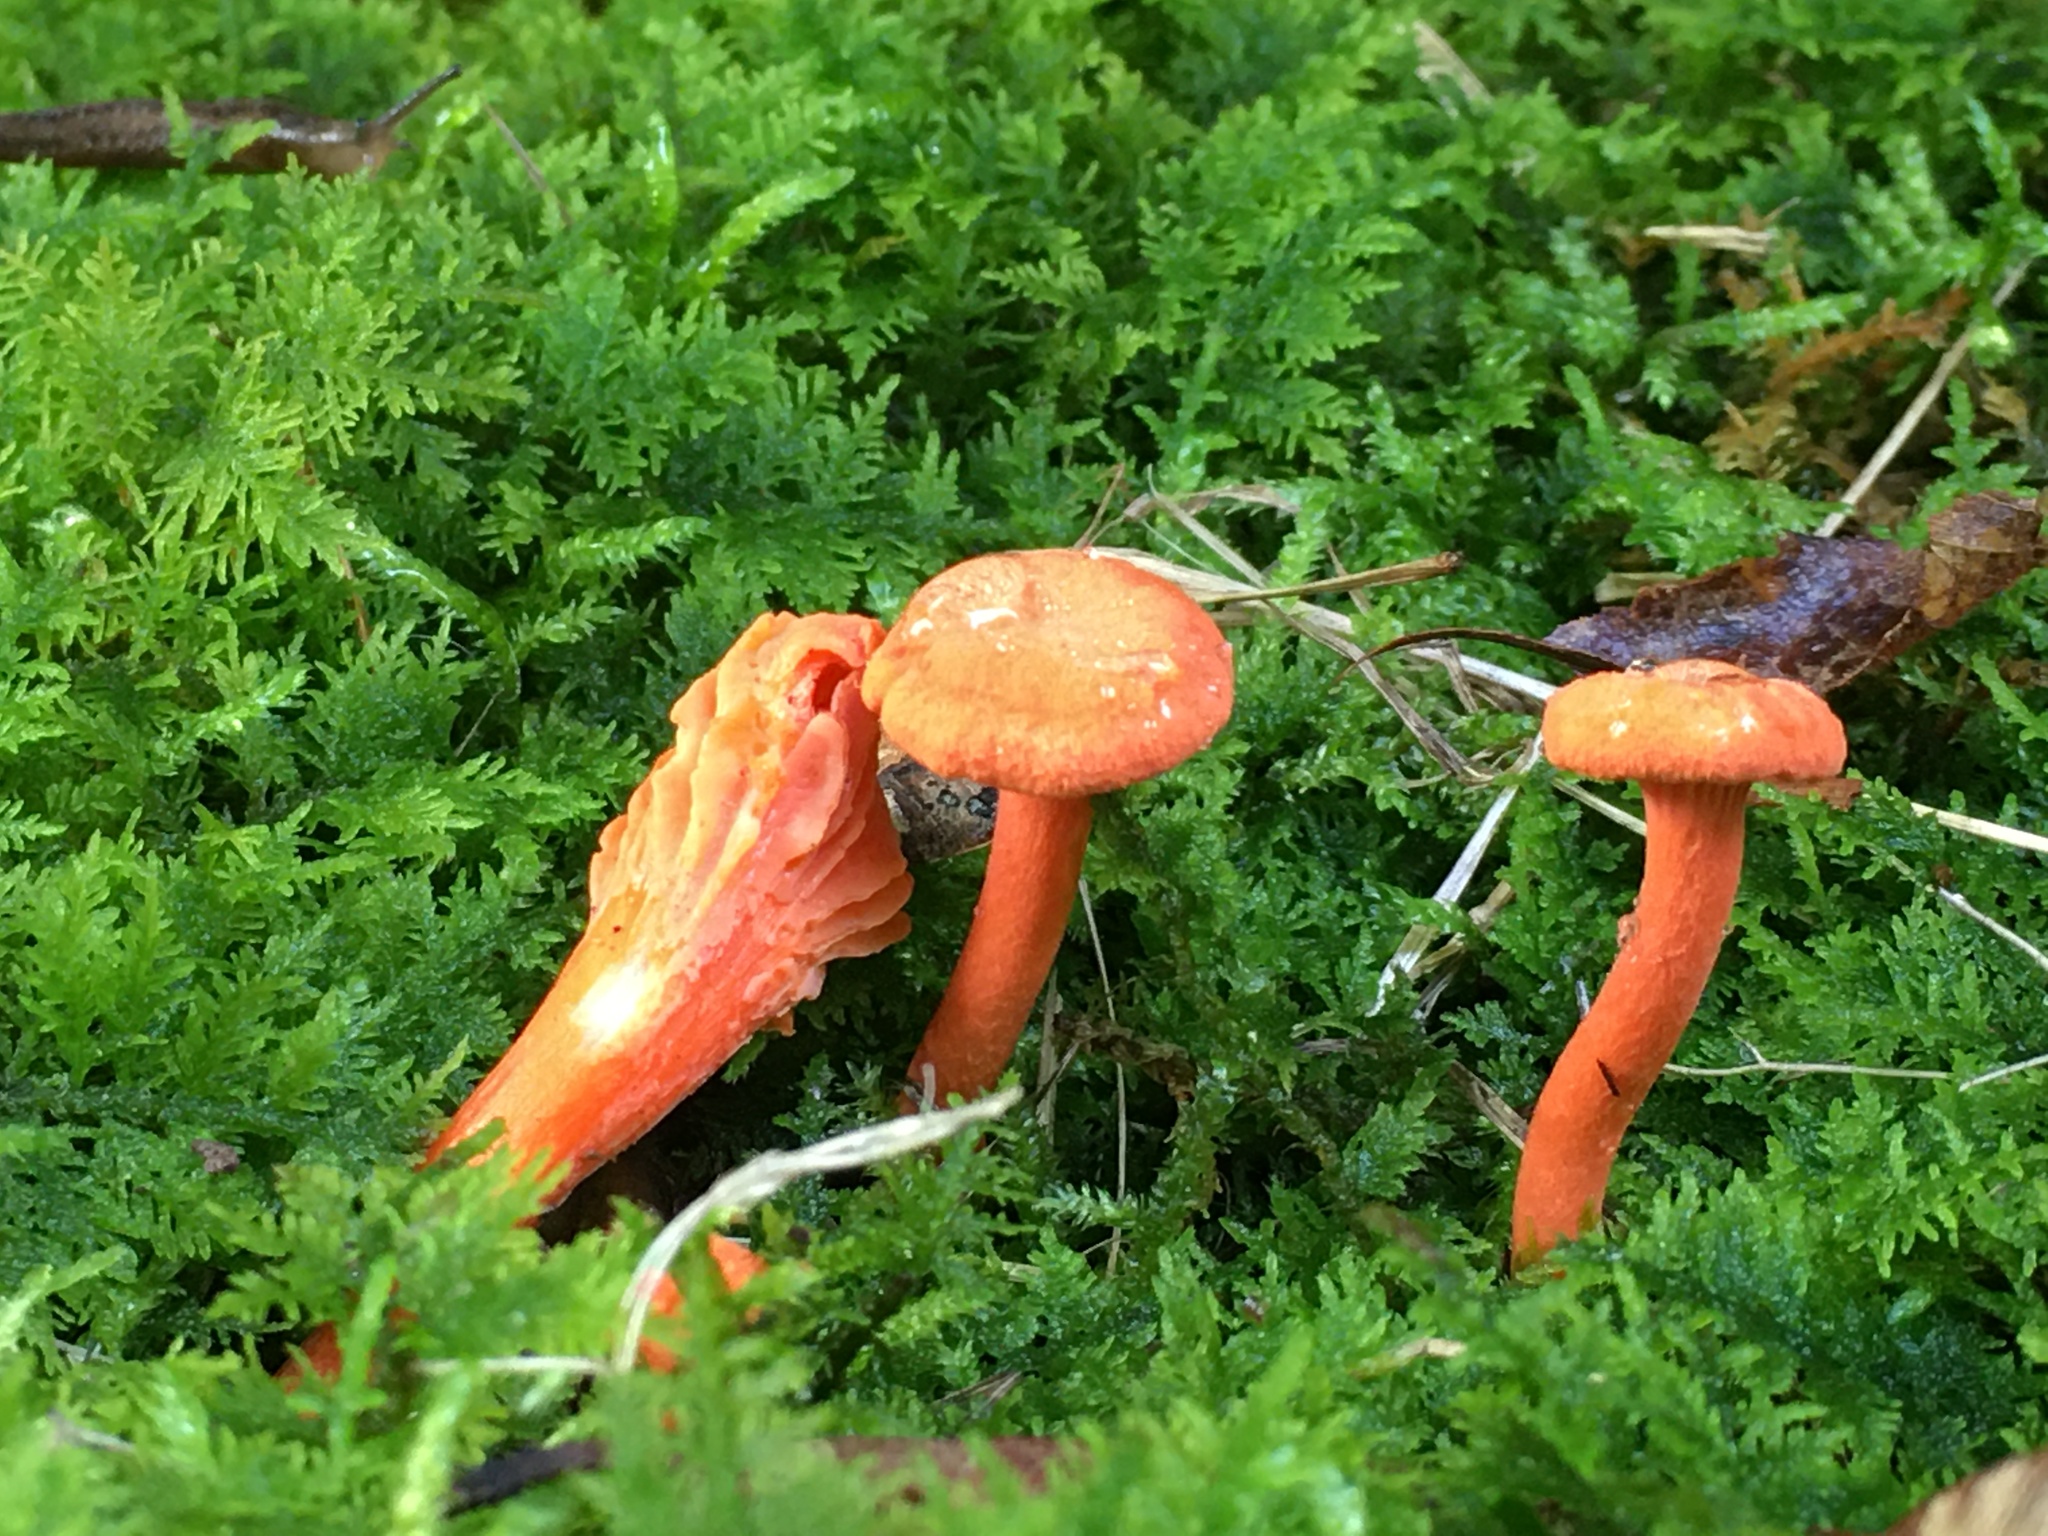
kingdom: Fungi
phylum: Basidiomycota
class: Agaricomycetes
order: Cantharellales
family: Hydnaceae
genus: Cantharellus
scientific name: Cantharellus cinnabarinus
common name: Cinnabar chanterelle
